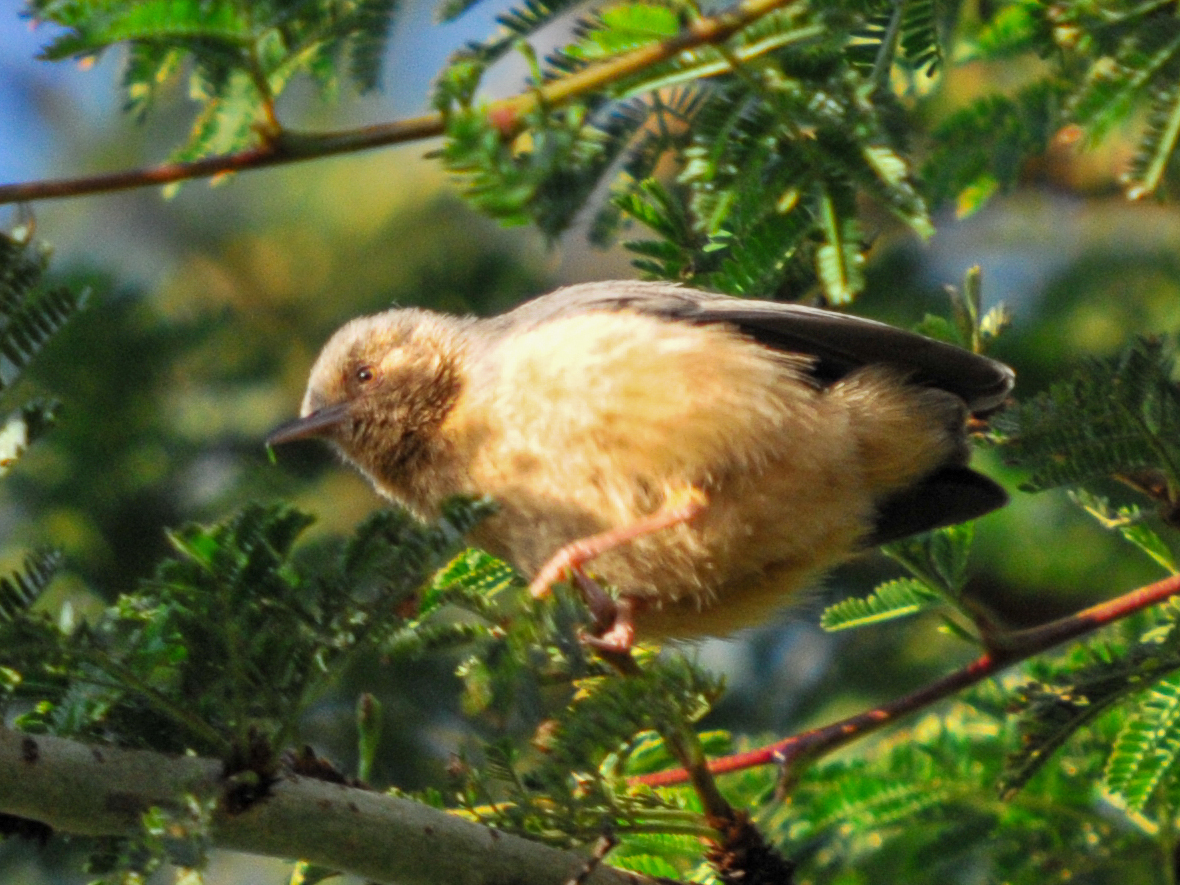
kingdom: Animalia
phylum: Chordata
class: Aves
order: Passeriformes
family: Macrosphenidae
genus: Sylvietta
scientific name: Sylvietta whytii
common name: Red-faced crombec
